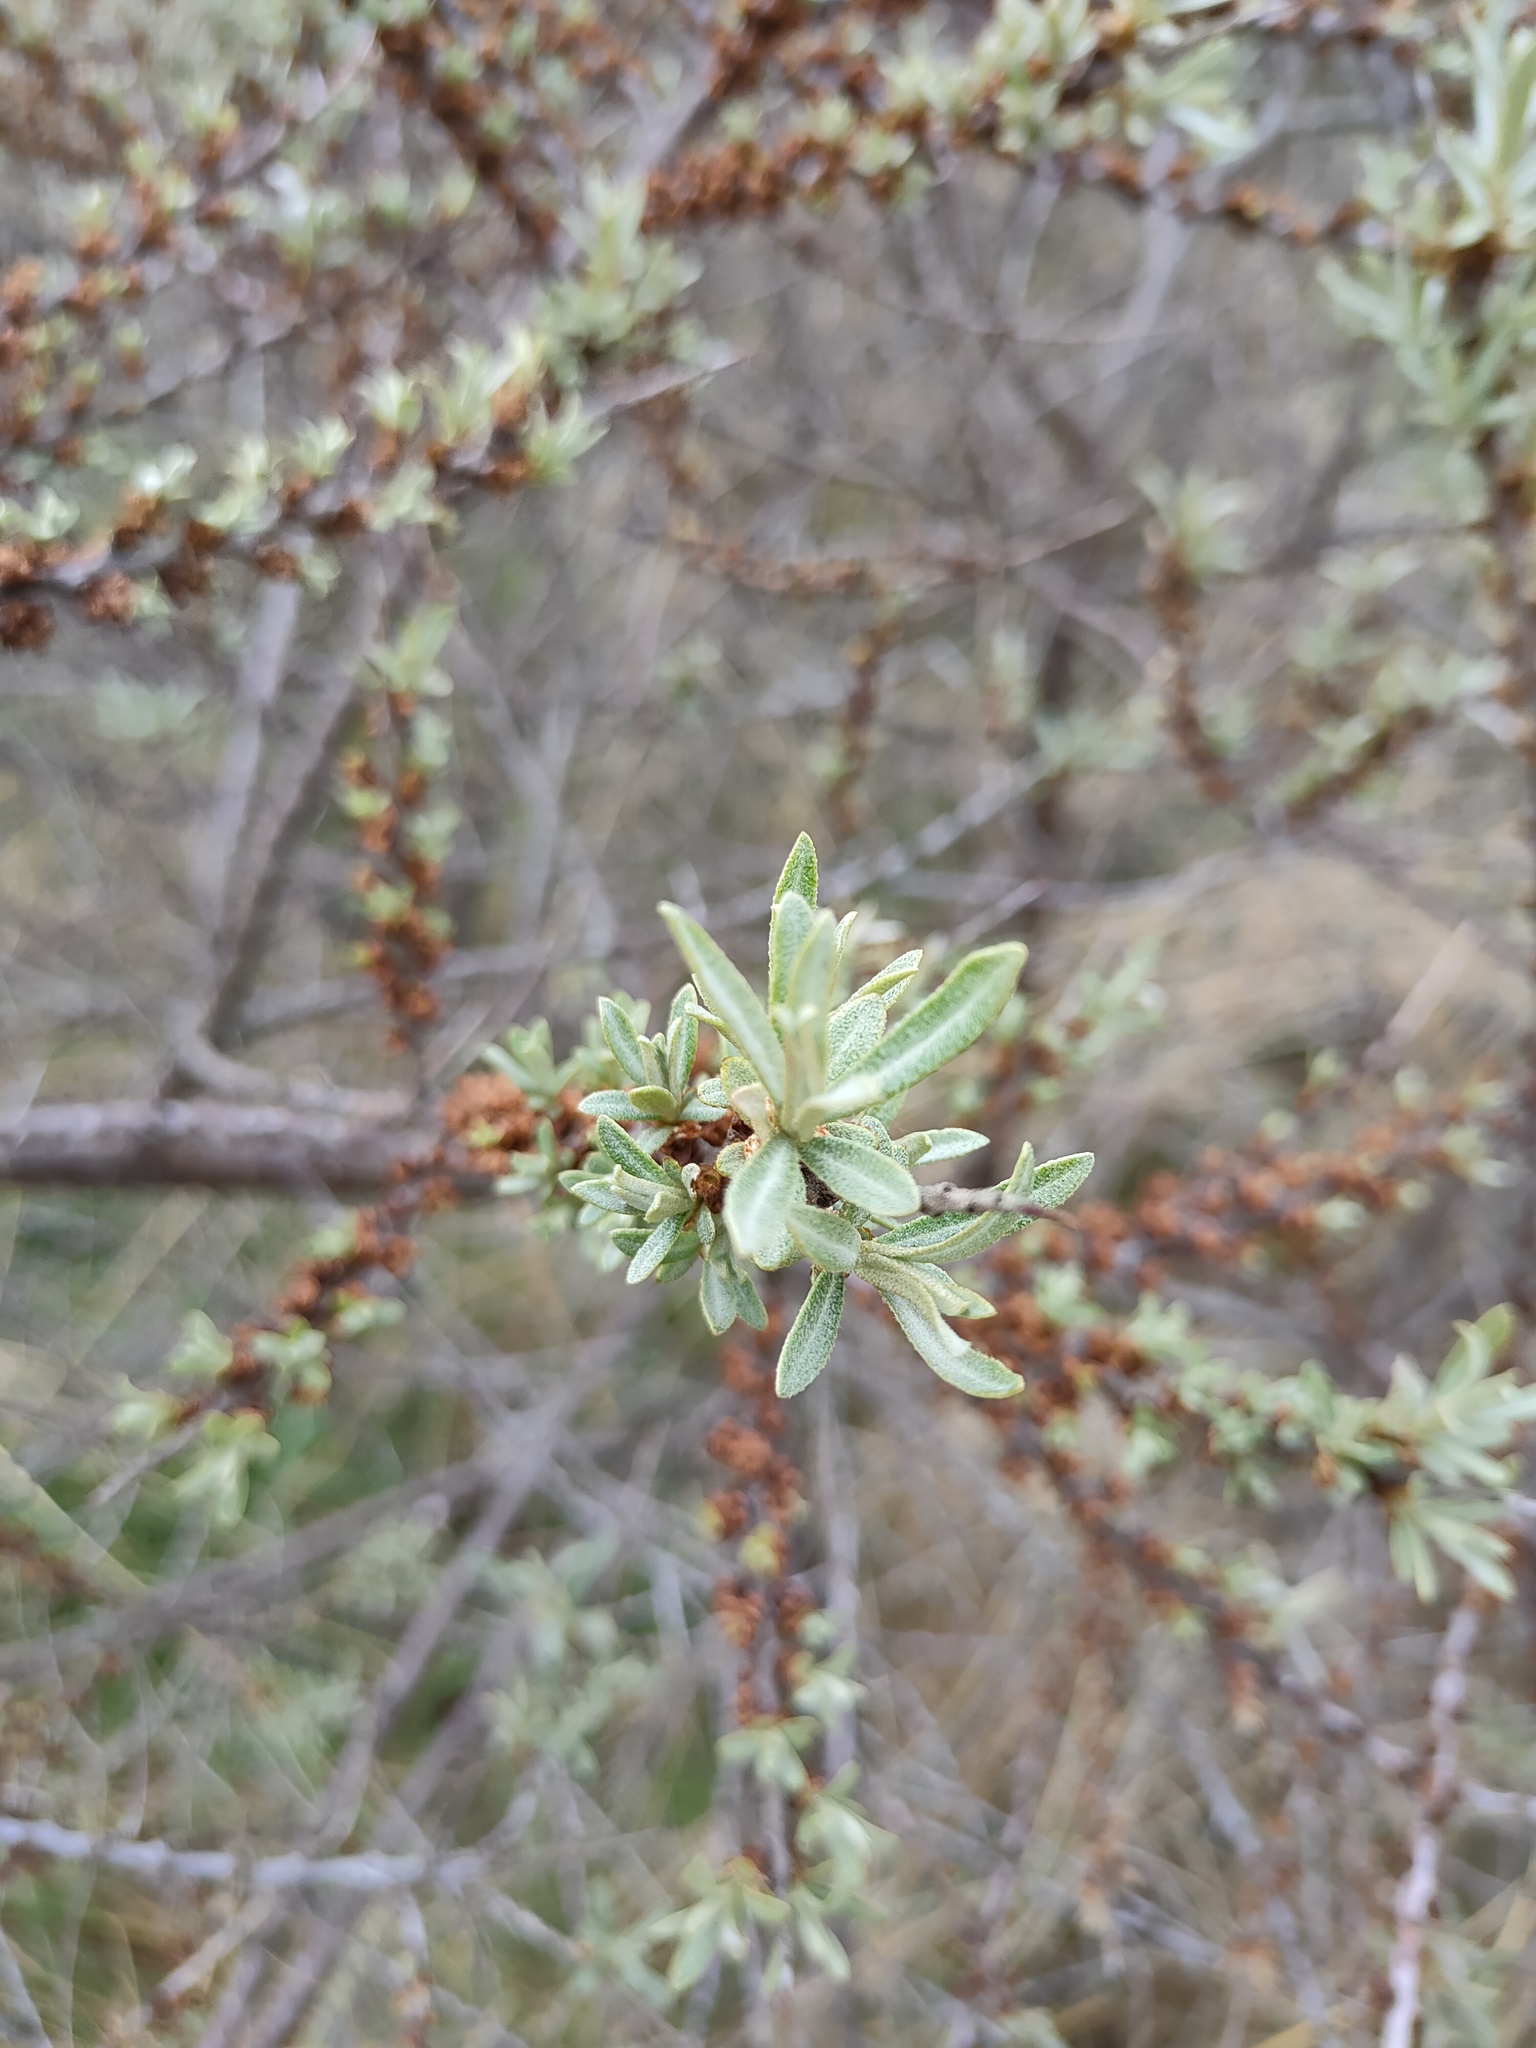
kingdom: Plantae
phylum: Tracheophyta
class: Magnoliopsida
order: Rosales
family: Elaeagnaceae
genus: Hippophae
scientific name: Hippophae rhamnoides
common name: Sea-buckthorn
